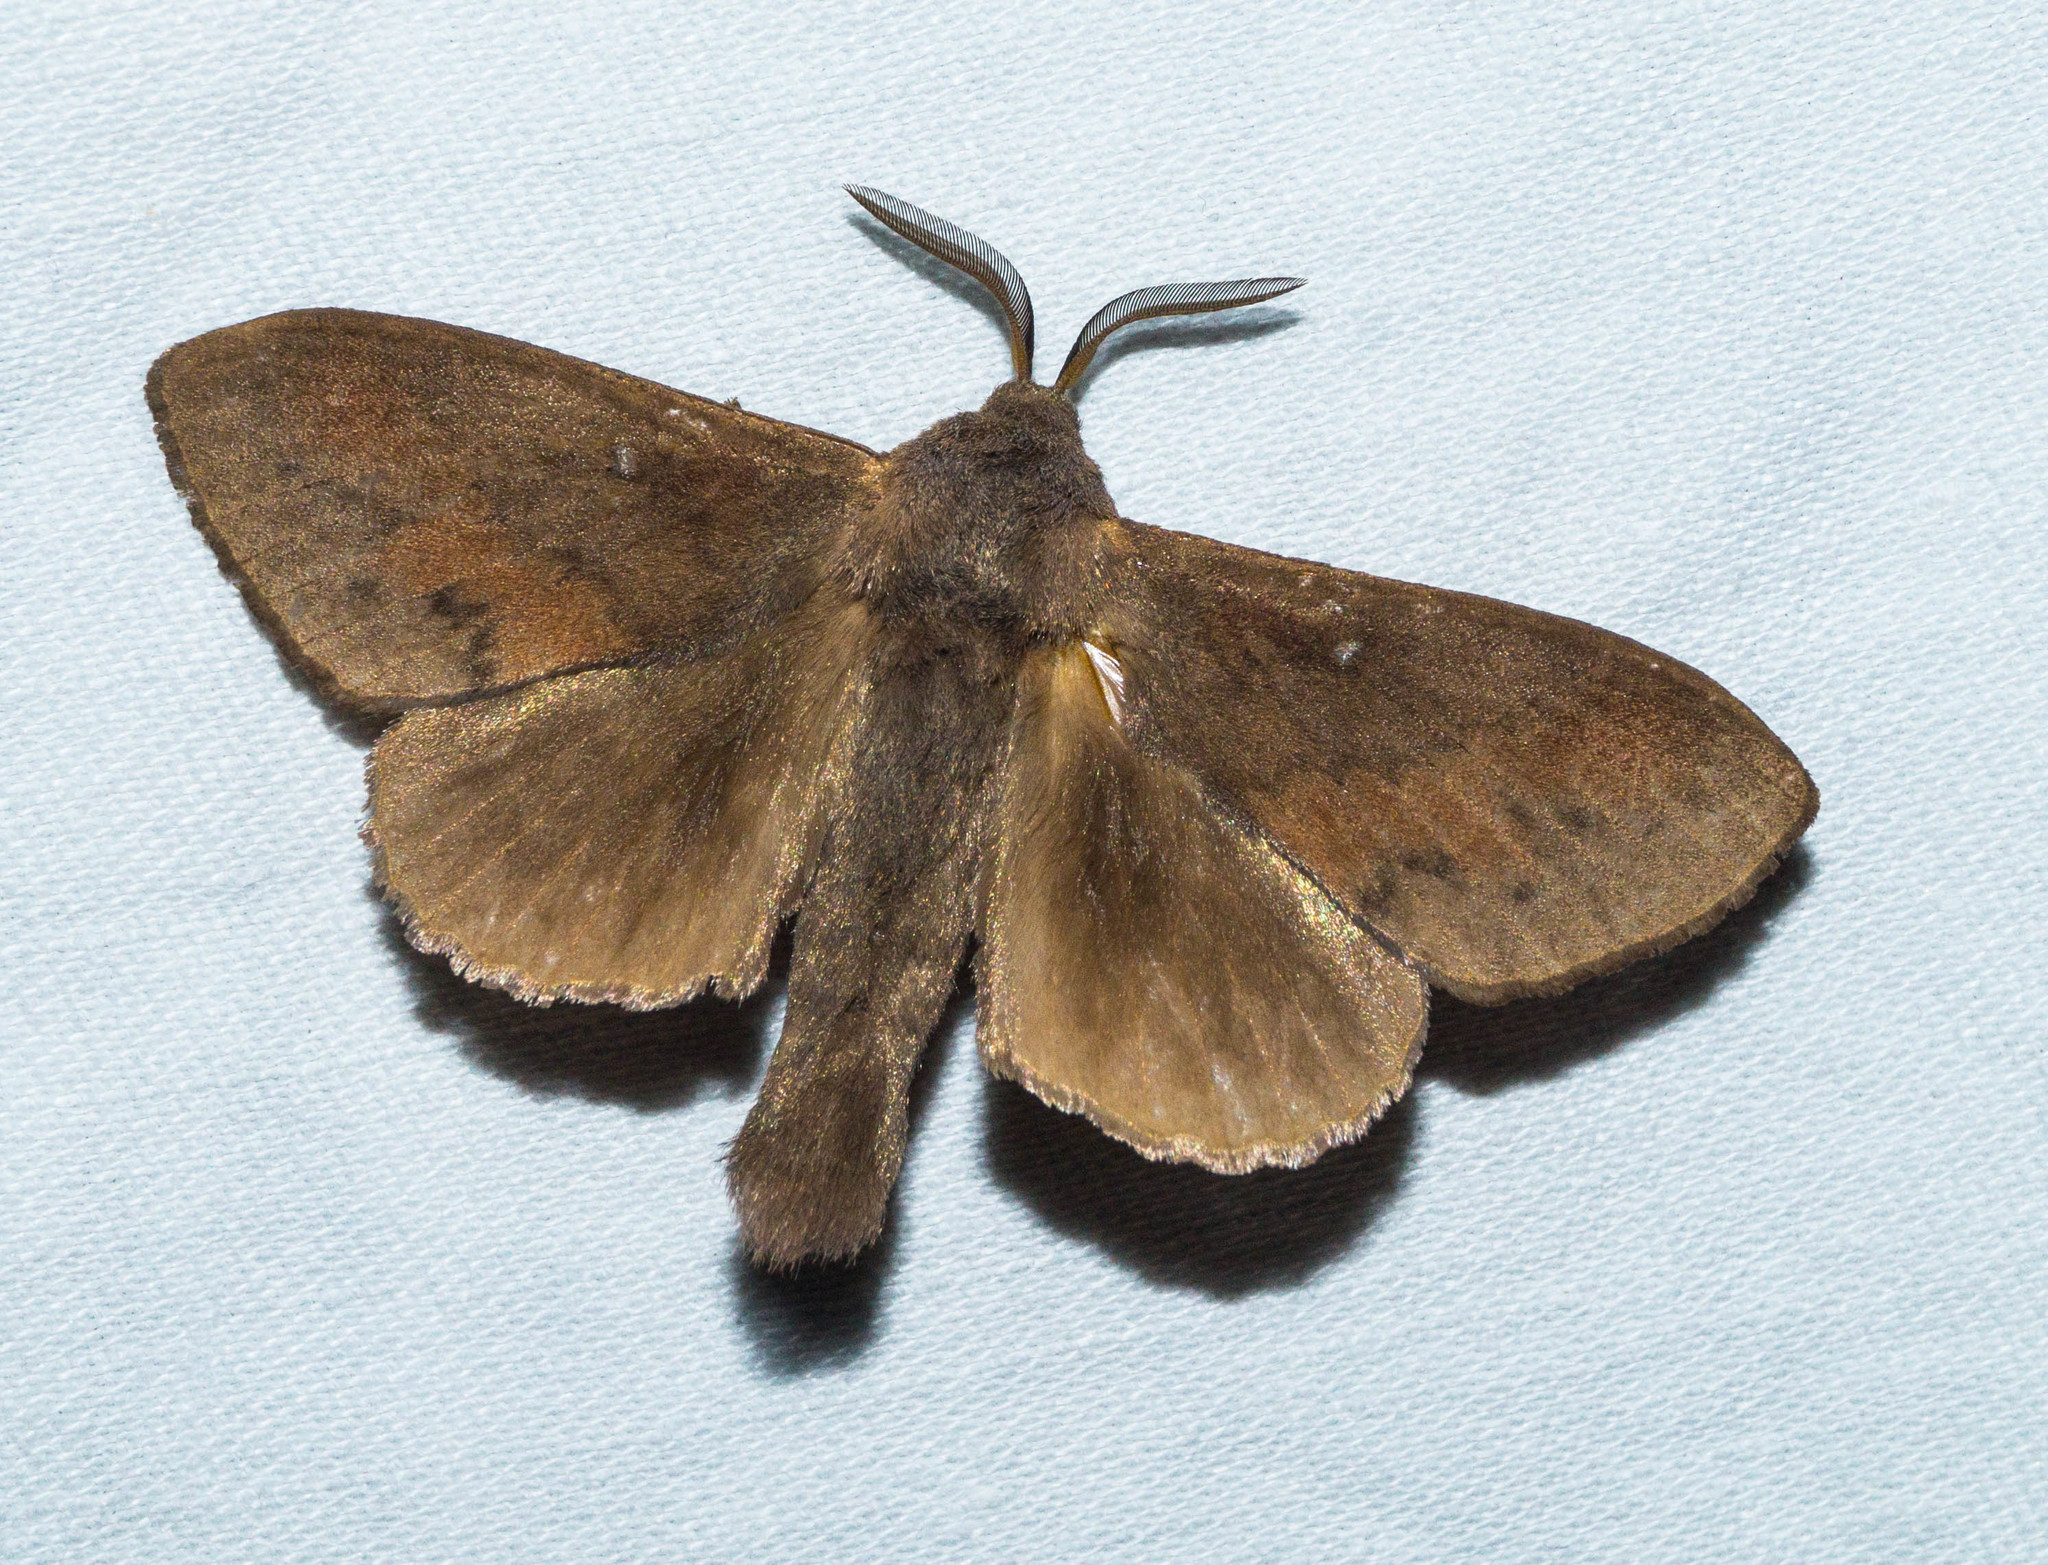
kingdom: Animalia
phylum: Arthropoda
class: Insecta
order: Lepidoptera
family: Lasiocampidae
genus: Dendrolimus
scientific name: Dendrolimus pini
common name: Pine-tree lappet
